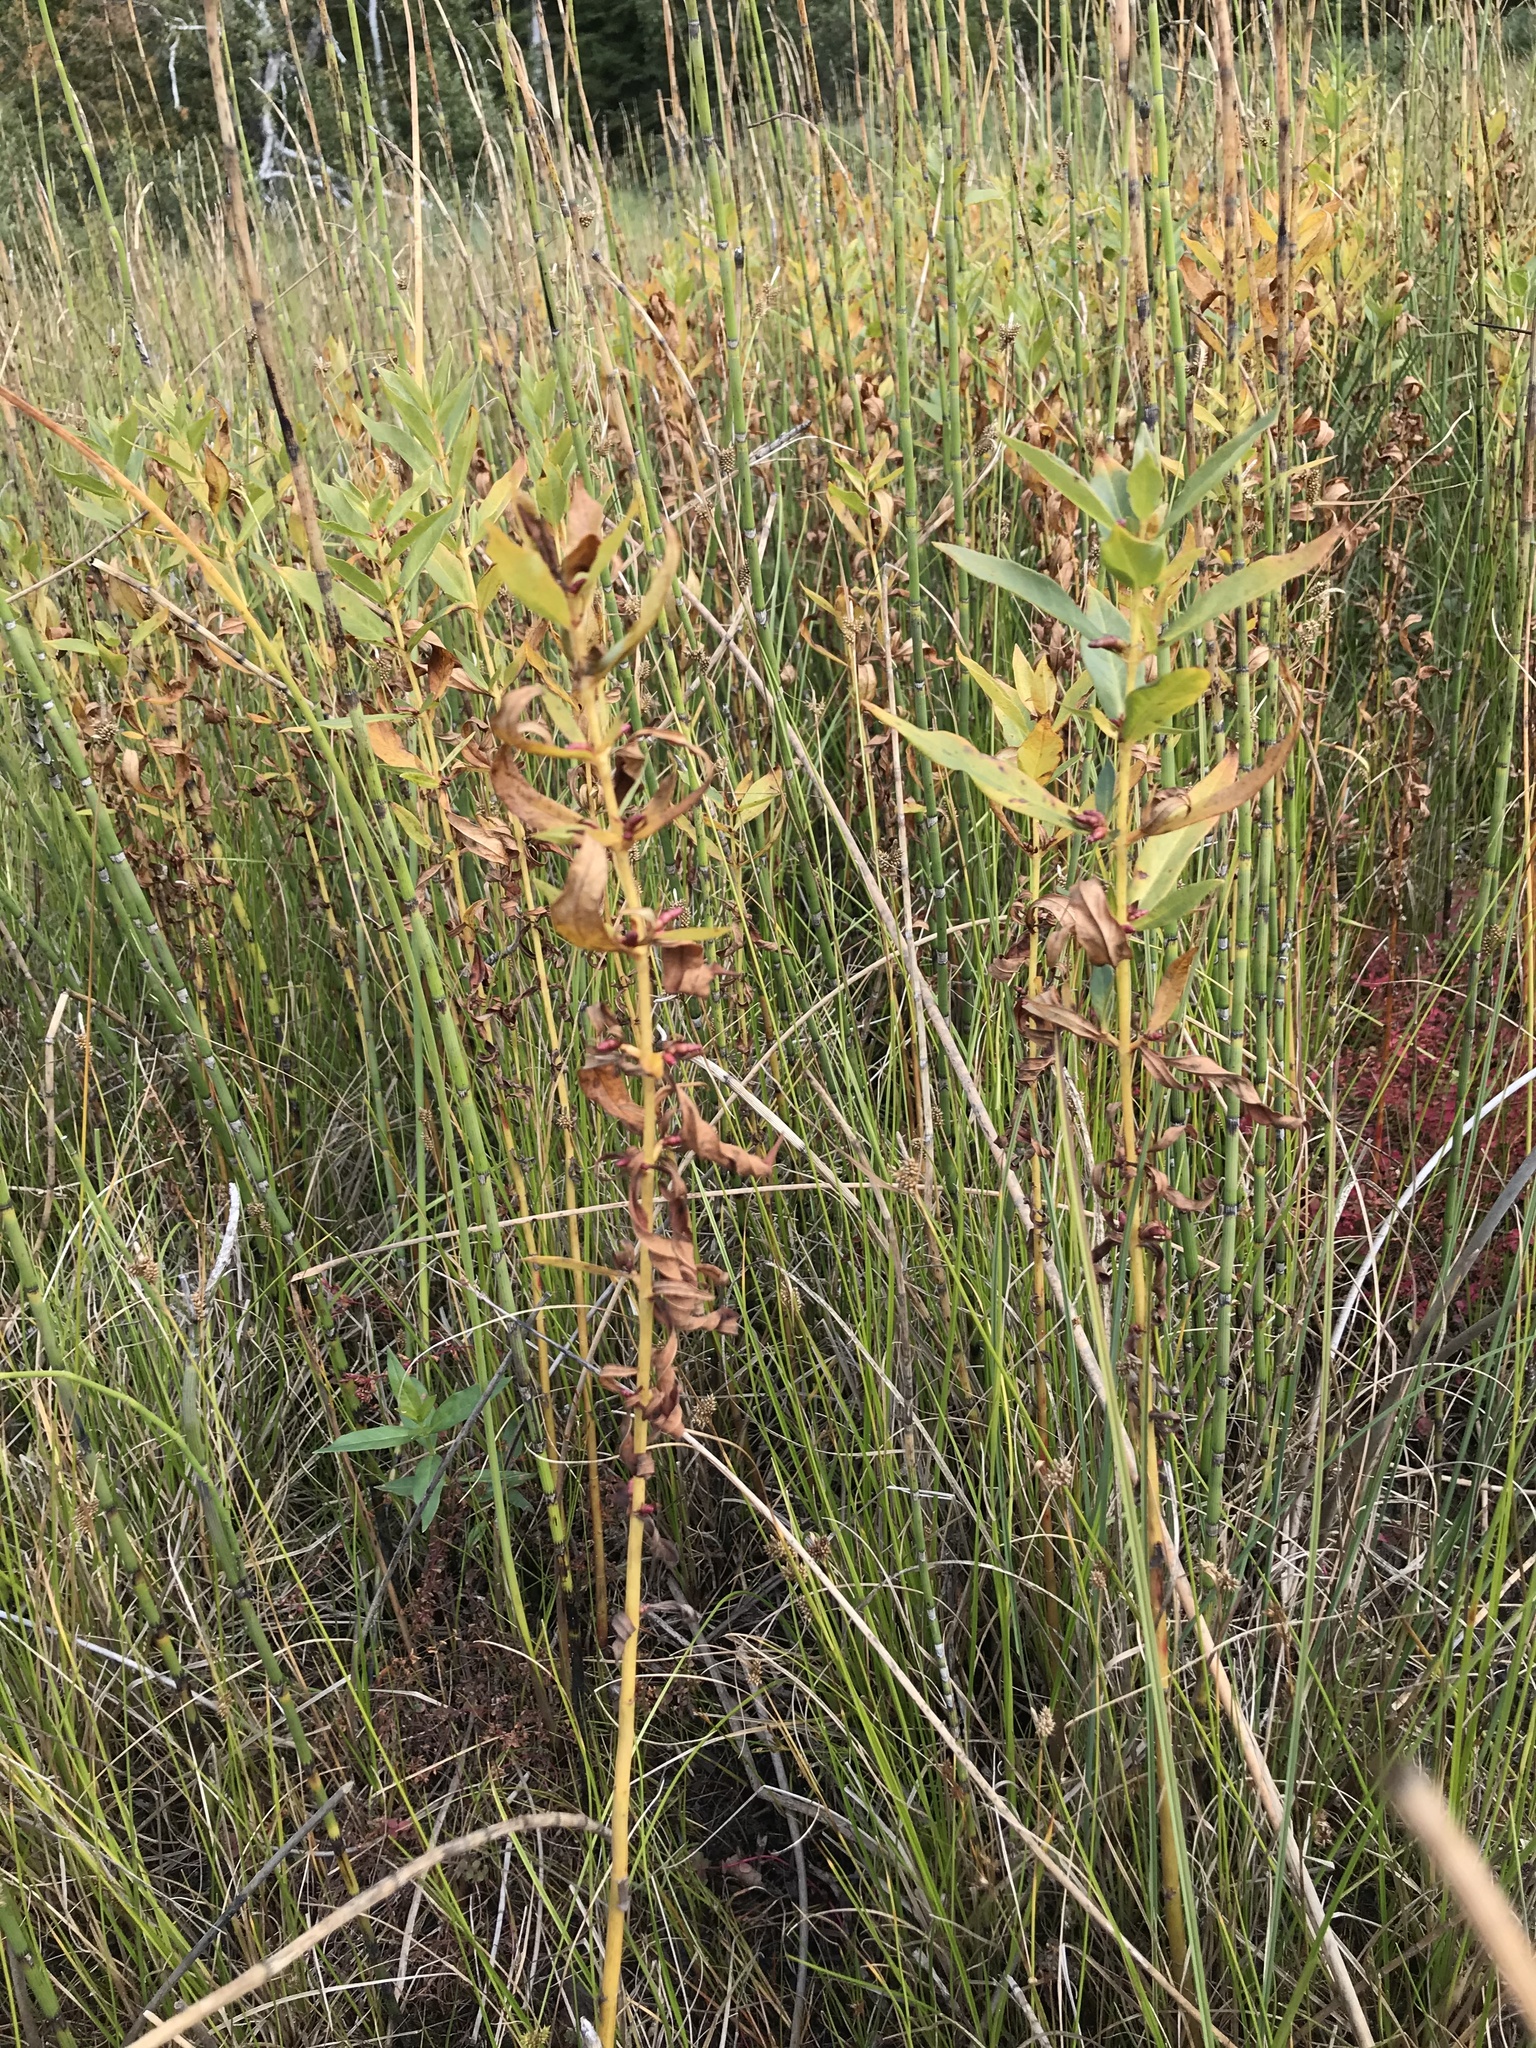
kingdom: Plantae
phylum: Tracheophyta
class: Magnoliopsida
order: Ericales
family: Primulaceae
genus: Lysimachia
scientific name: Lysimachia terrestris
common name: Lake loosestrife
